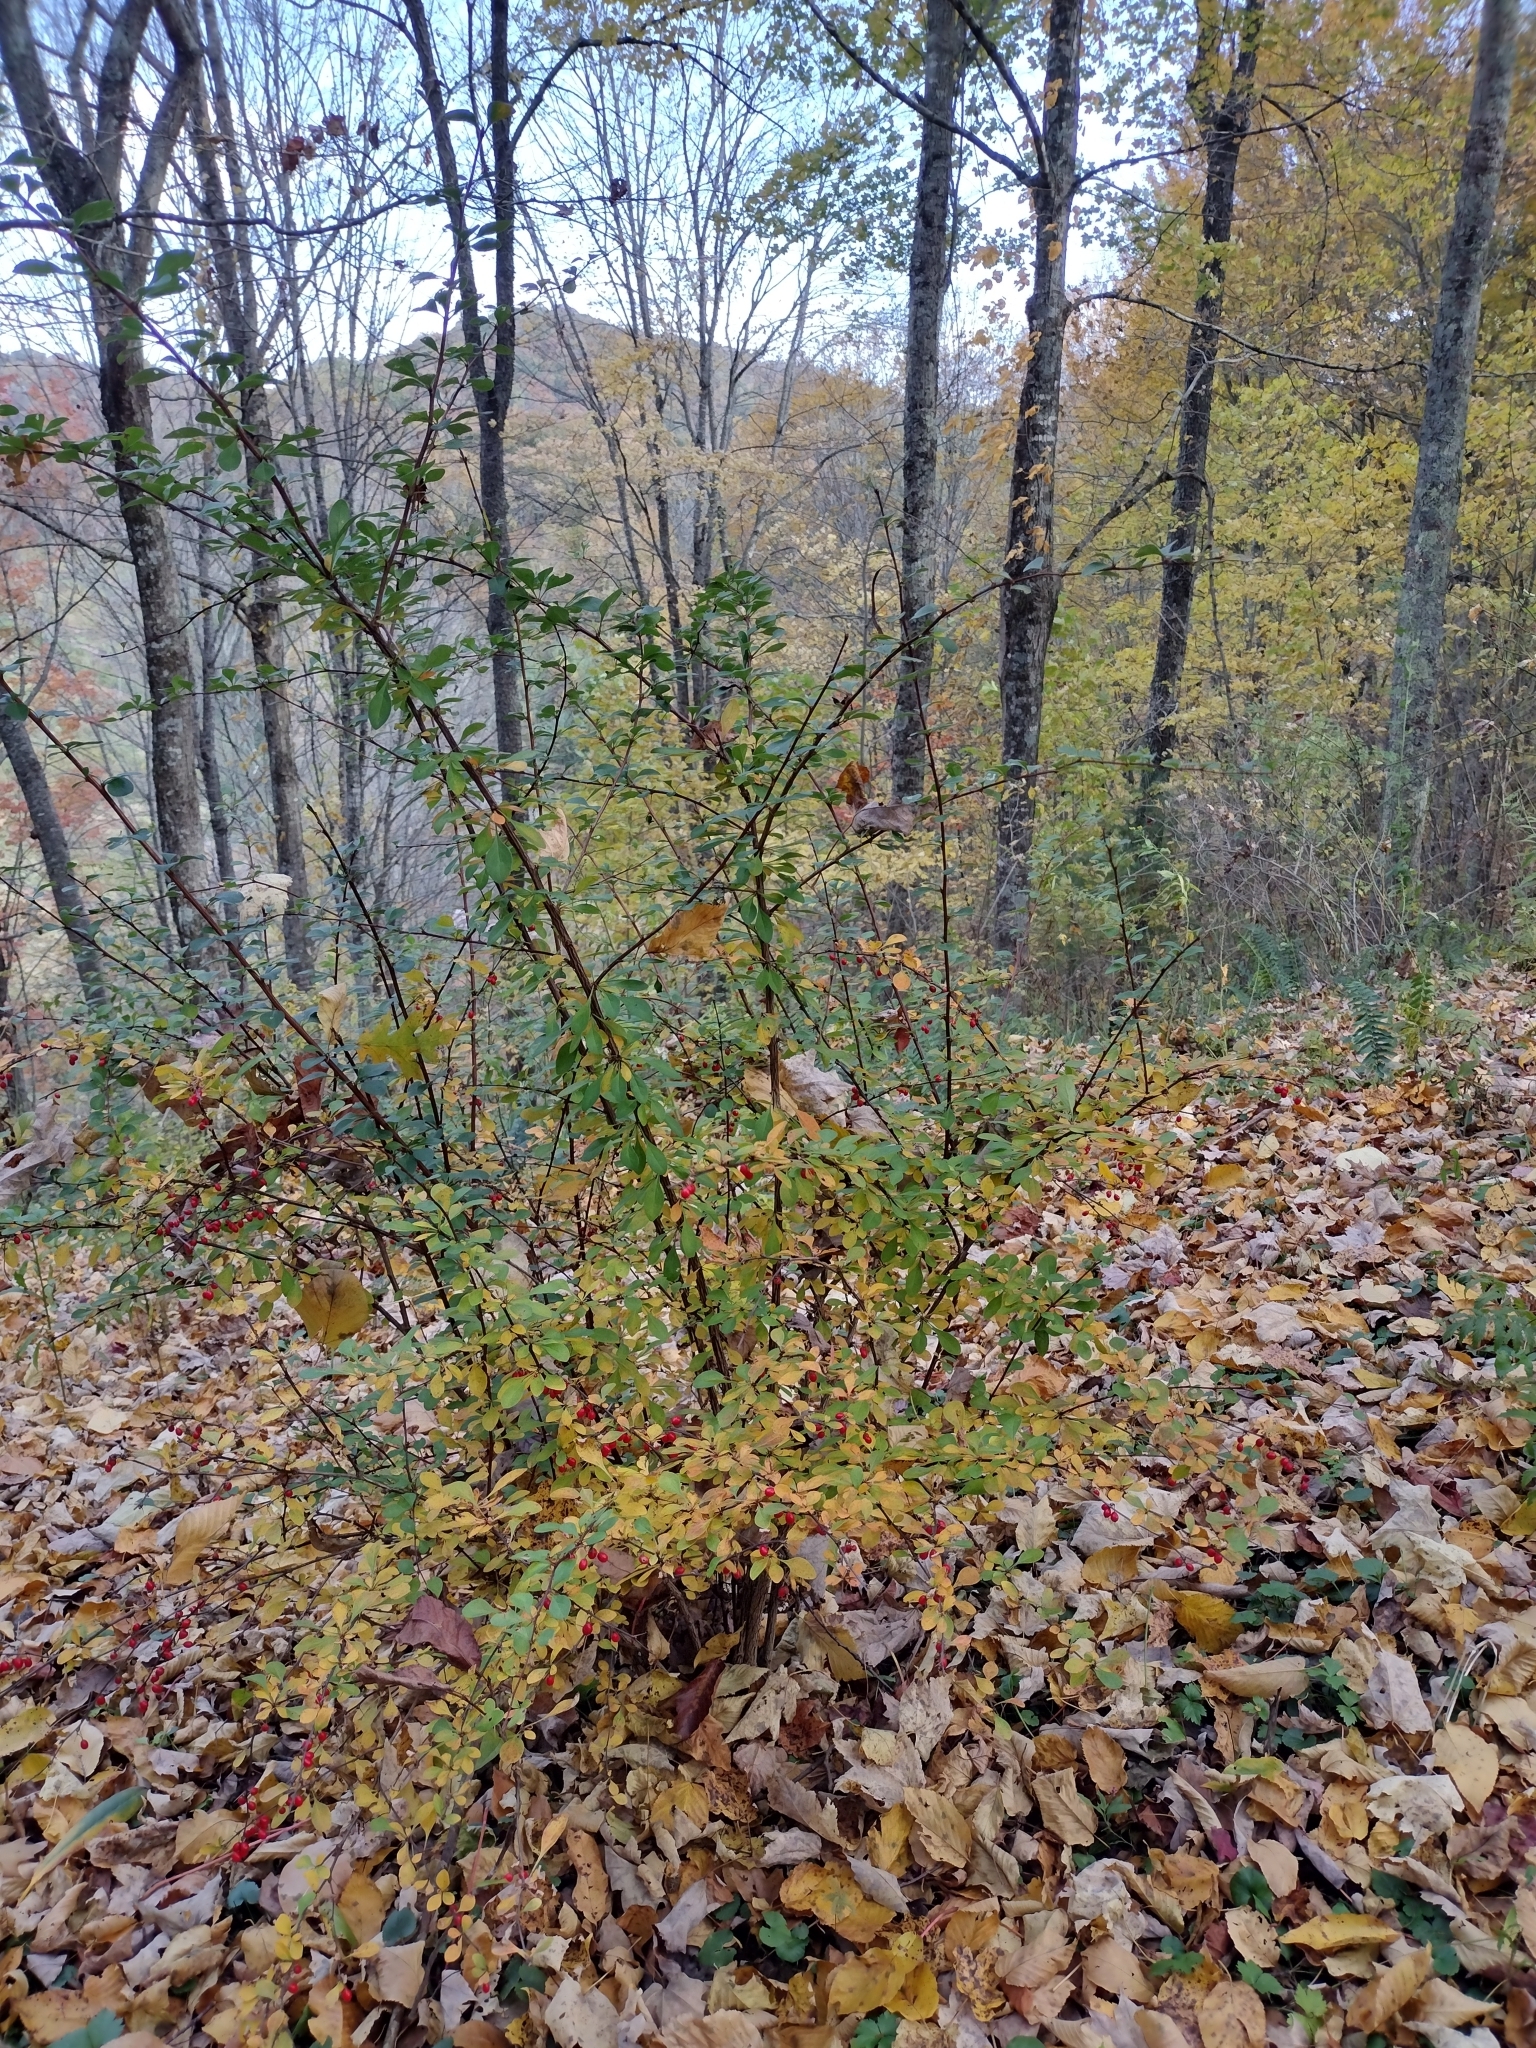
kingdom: Plantae
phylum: Tracheophyta
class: Magnoliopsida
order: Ranunculales
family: Berberidaceae
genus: Berberis
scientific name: Berberis thunbergii
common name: Japanese barberry
